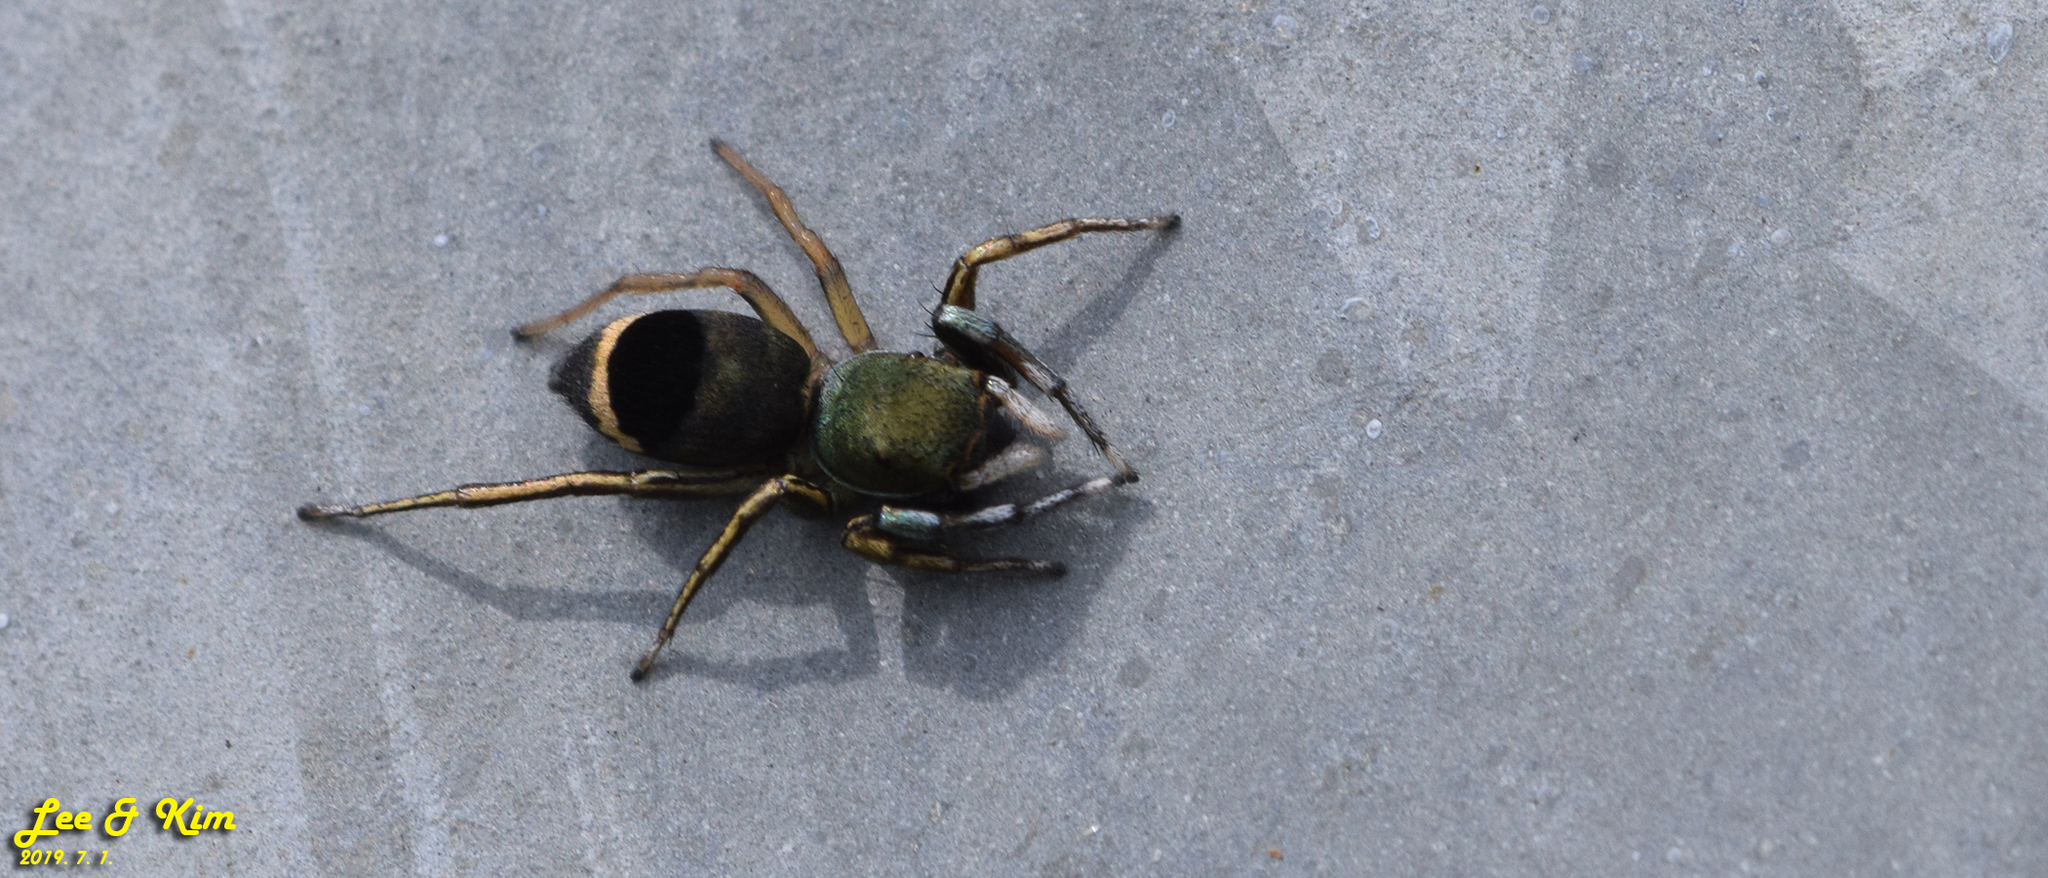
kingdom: Animalia
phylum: Arthropoda
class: Arachnida
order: Araneae
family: Salticidae
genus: Siler
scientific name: Siler cupreus
